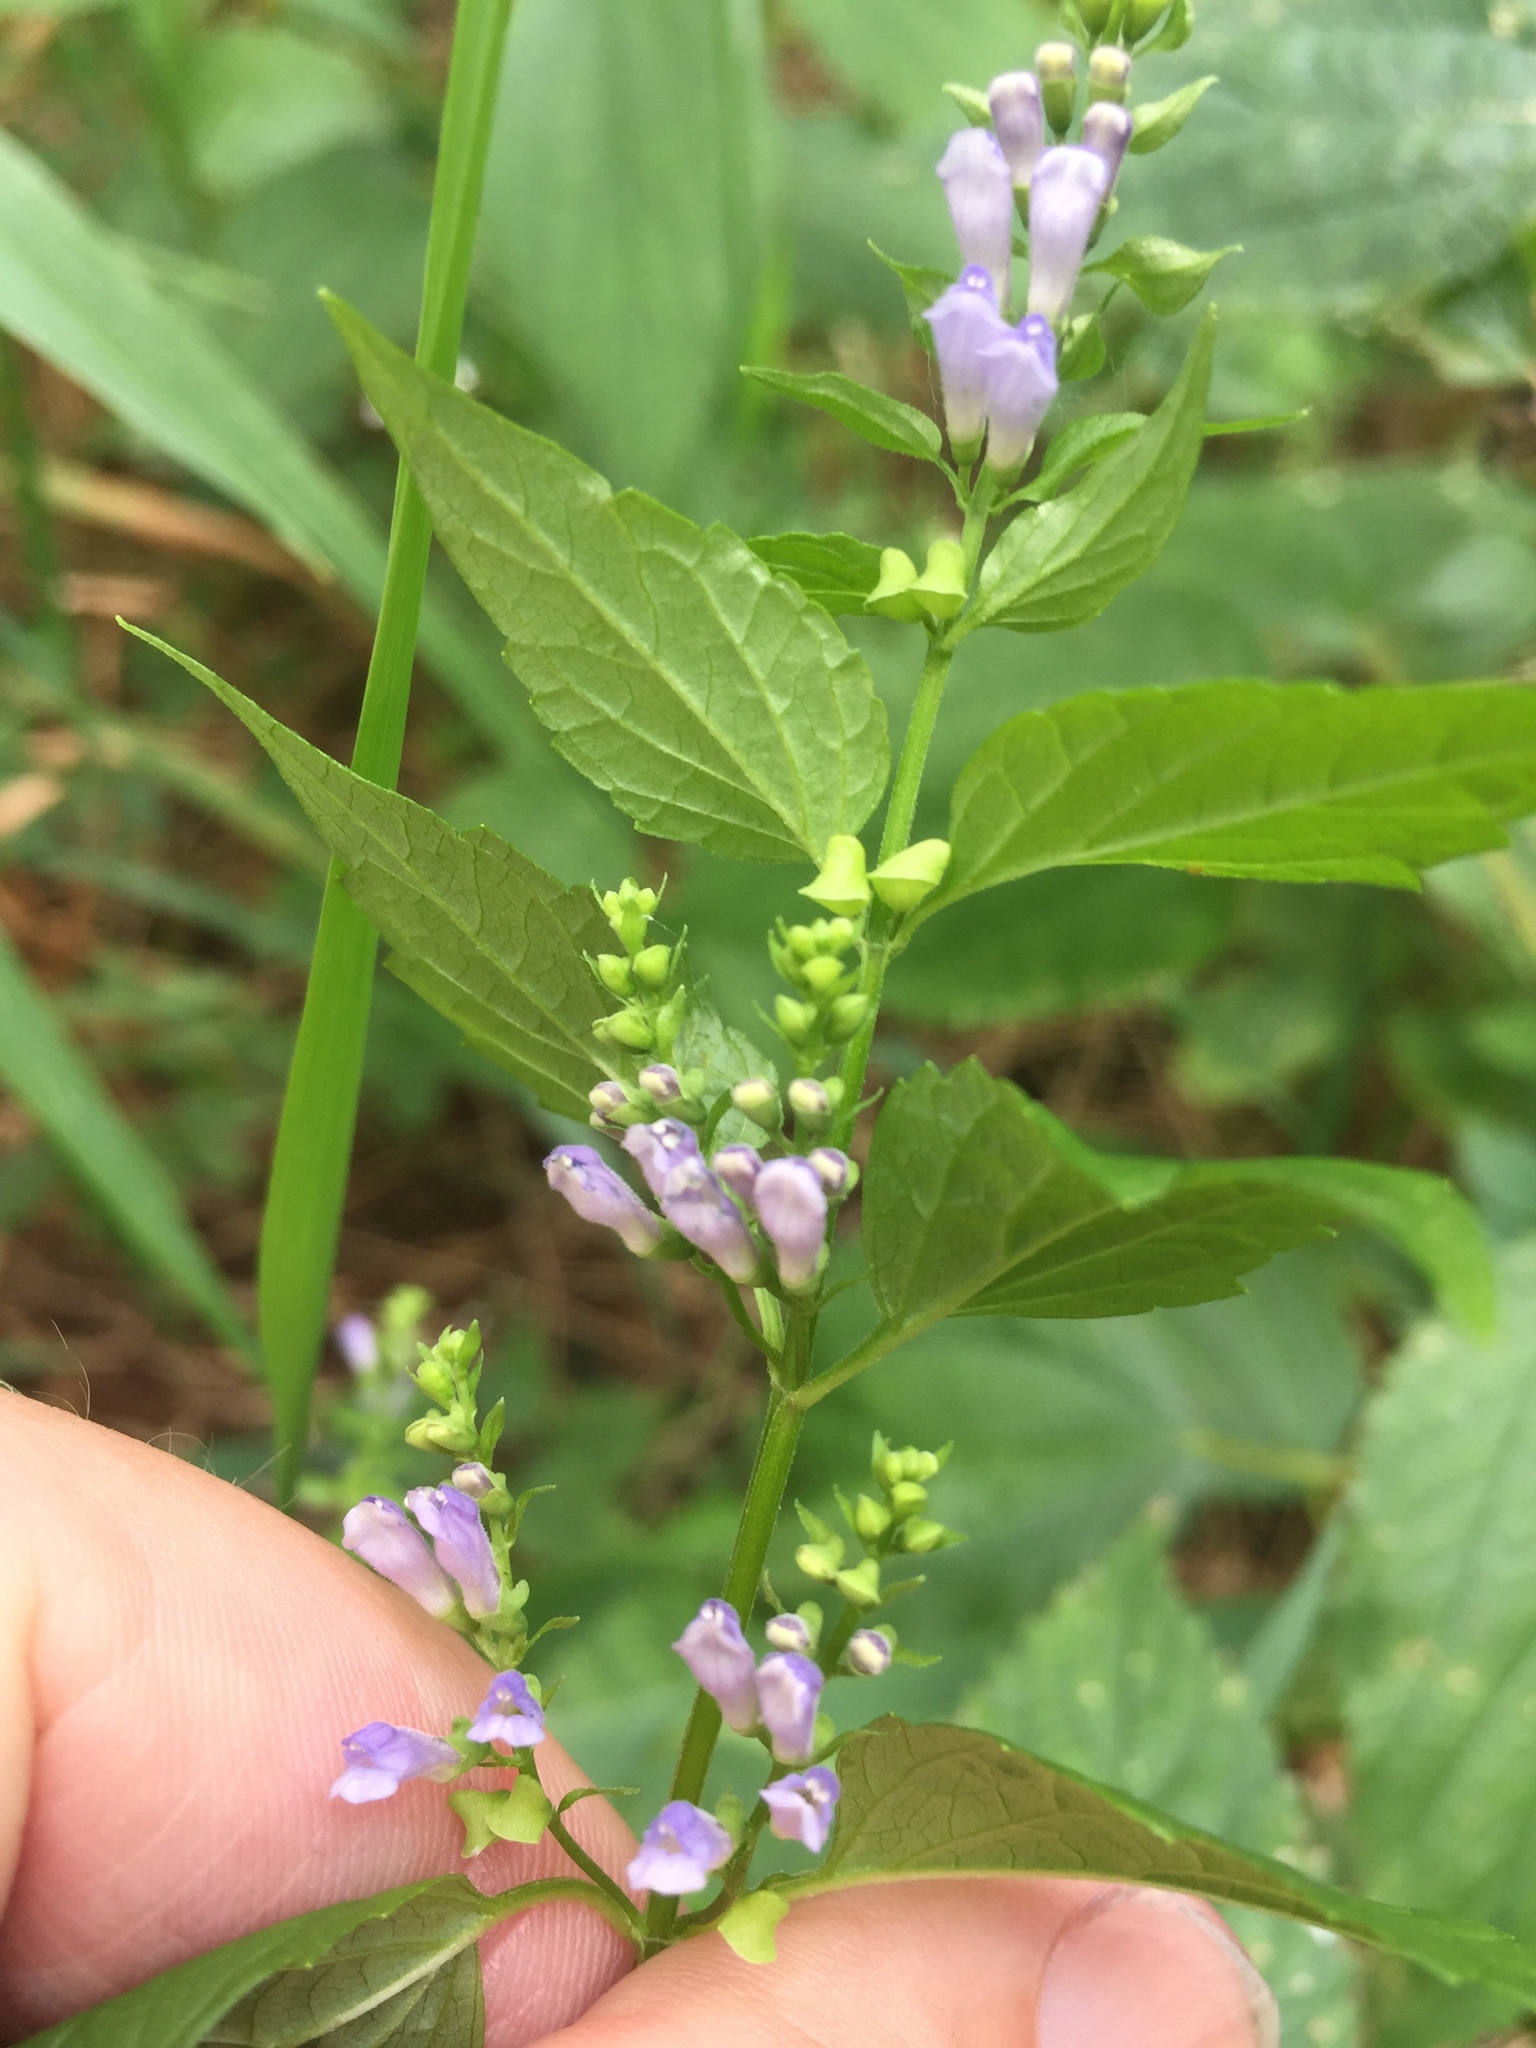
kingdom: Plantae
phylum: Tracheophyta
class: Magnoliopsida
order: Lamiales
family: Lamiaceae
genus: Scutellaria
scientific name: Scutellaria lateriflora
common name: Blue skullcap
